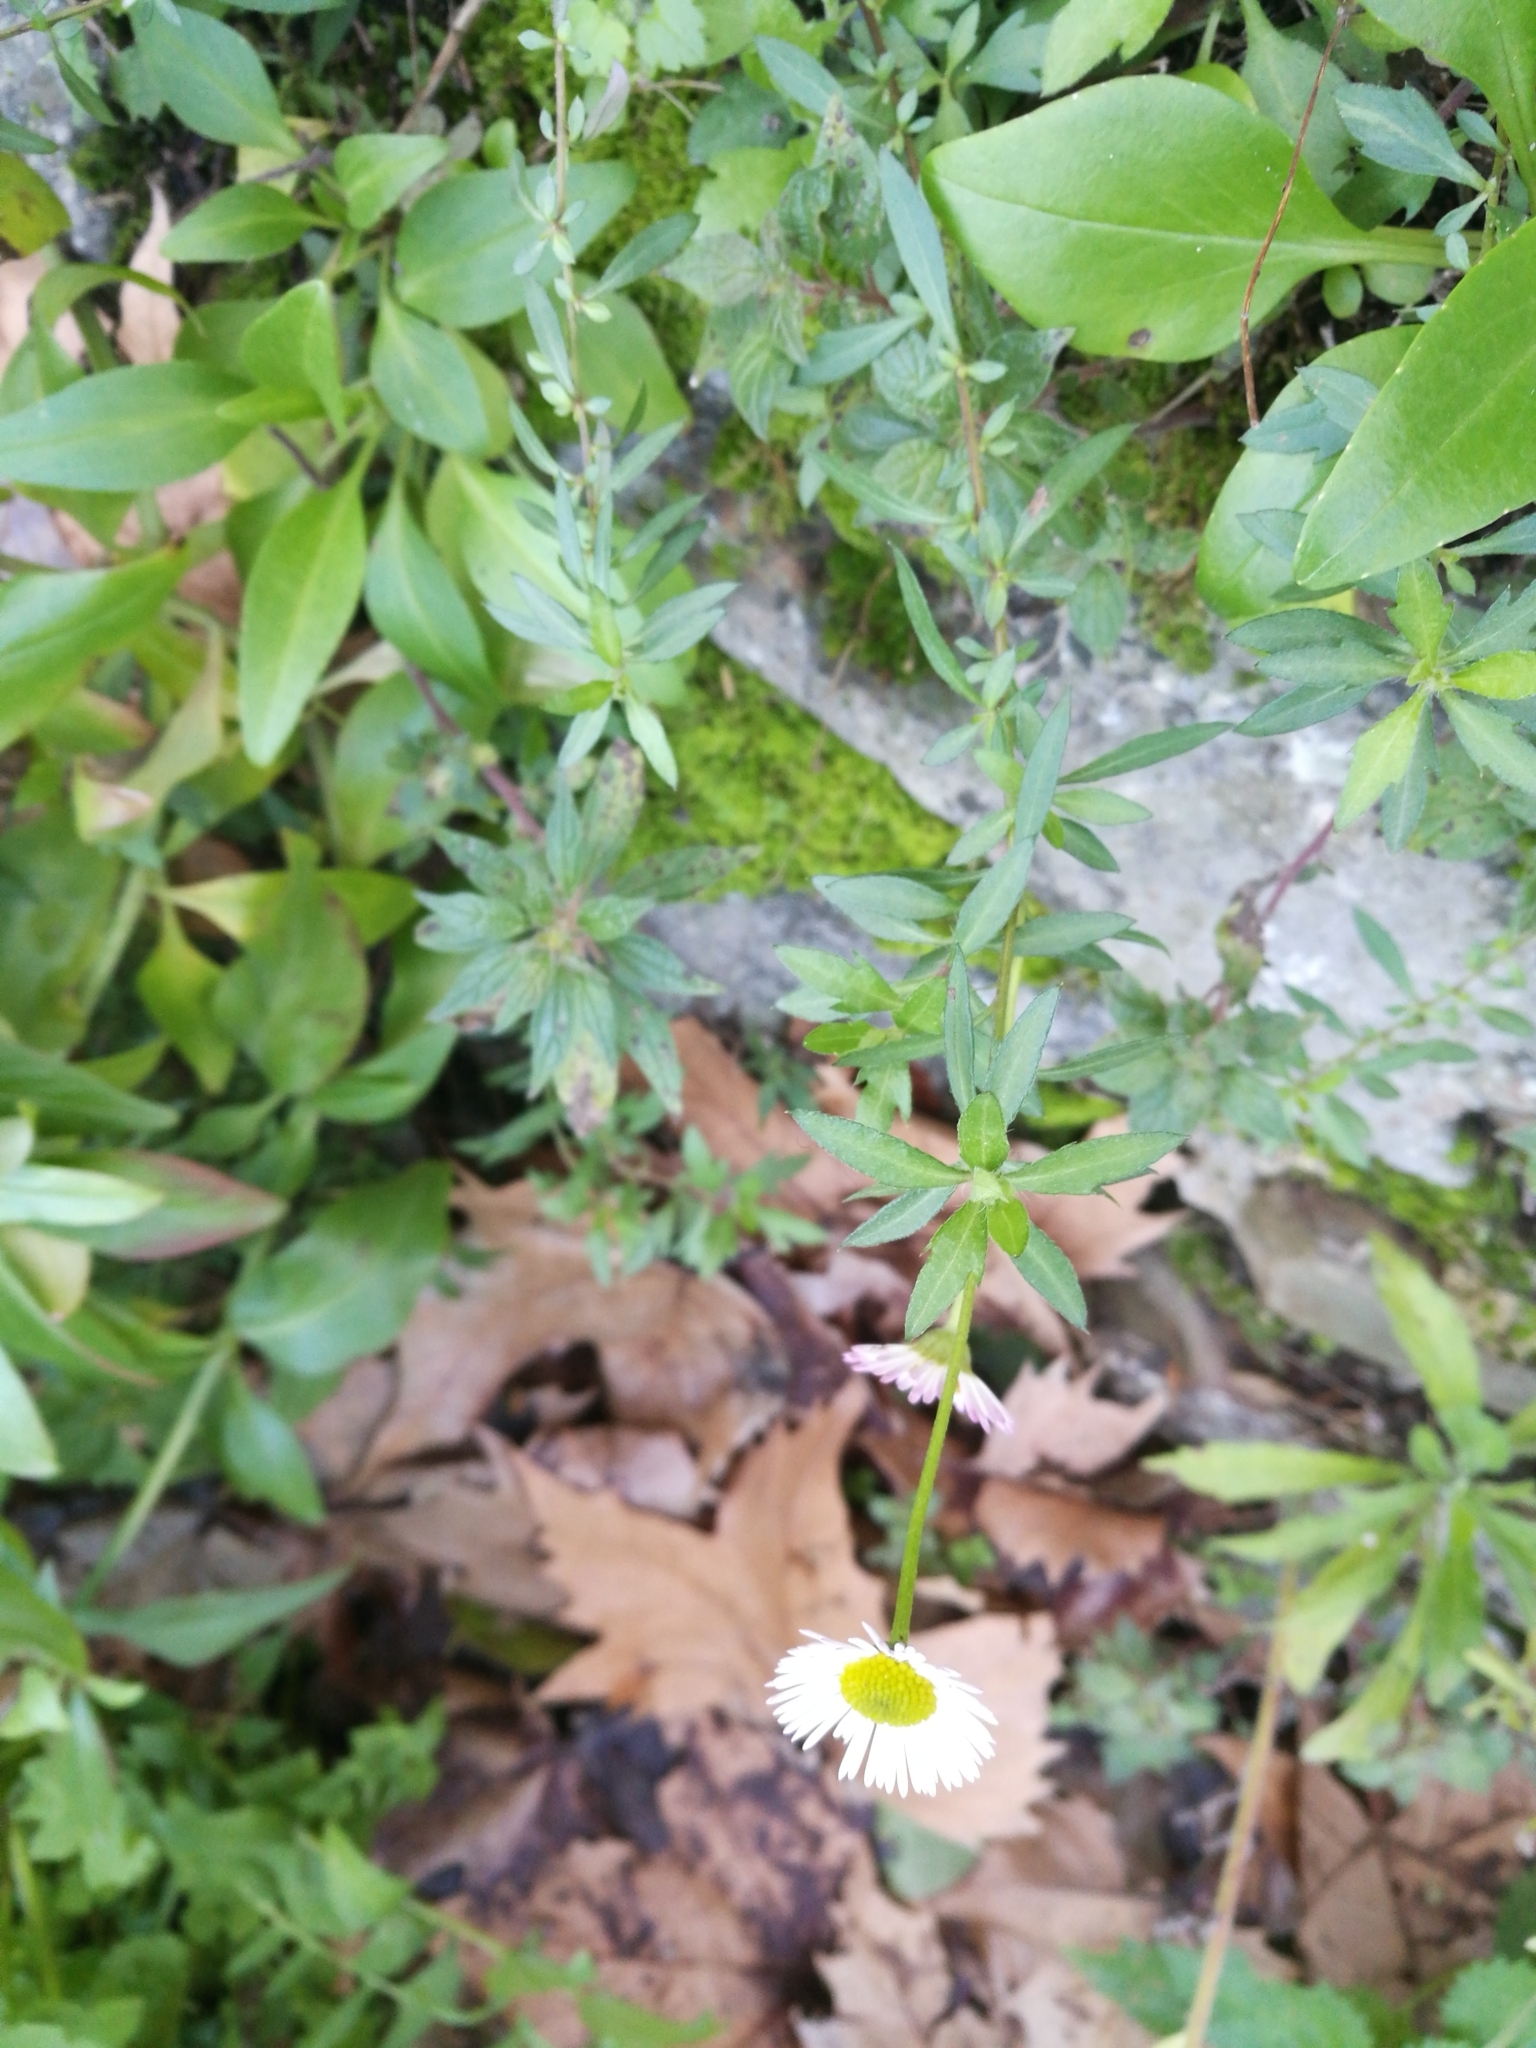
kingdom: Plantae
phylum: Tracheophyta
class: Magnoliopsida
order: Asterales
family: Asteraceae
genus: Erigeron
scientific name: Erigeron karvinskianus
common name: Mexican fleabane
